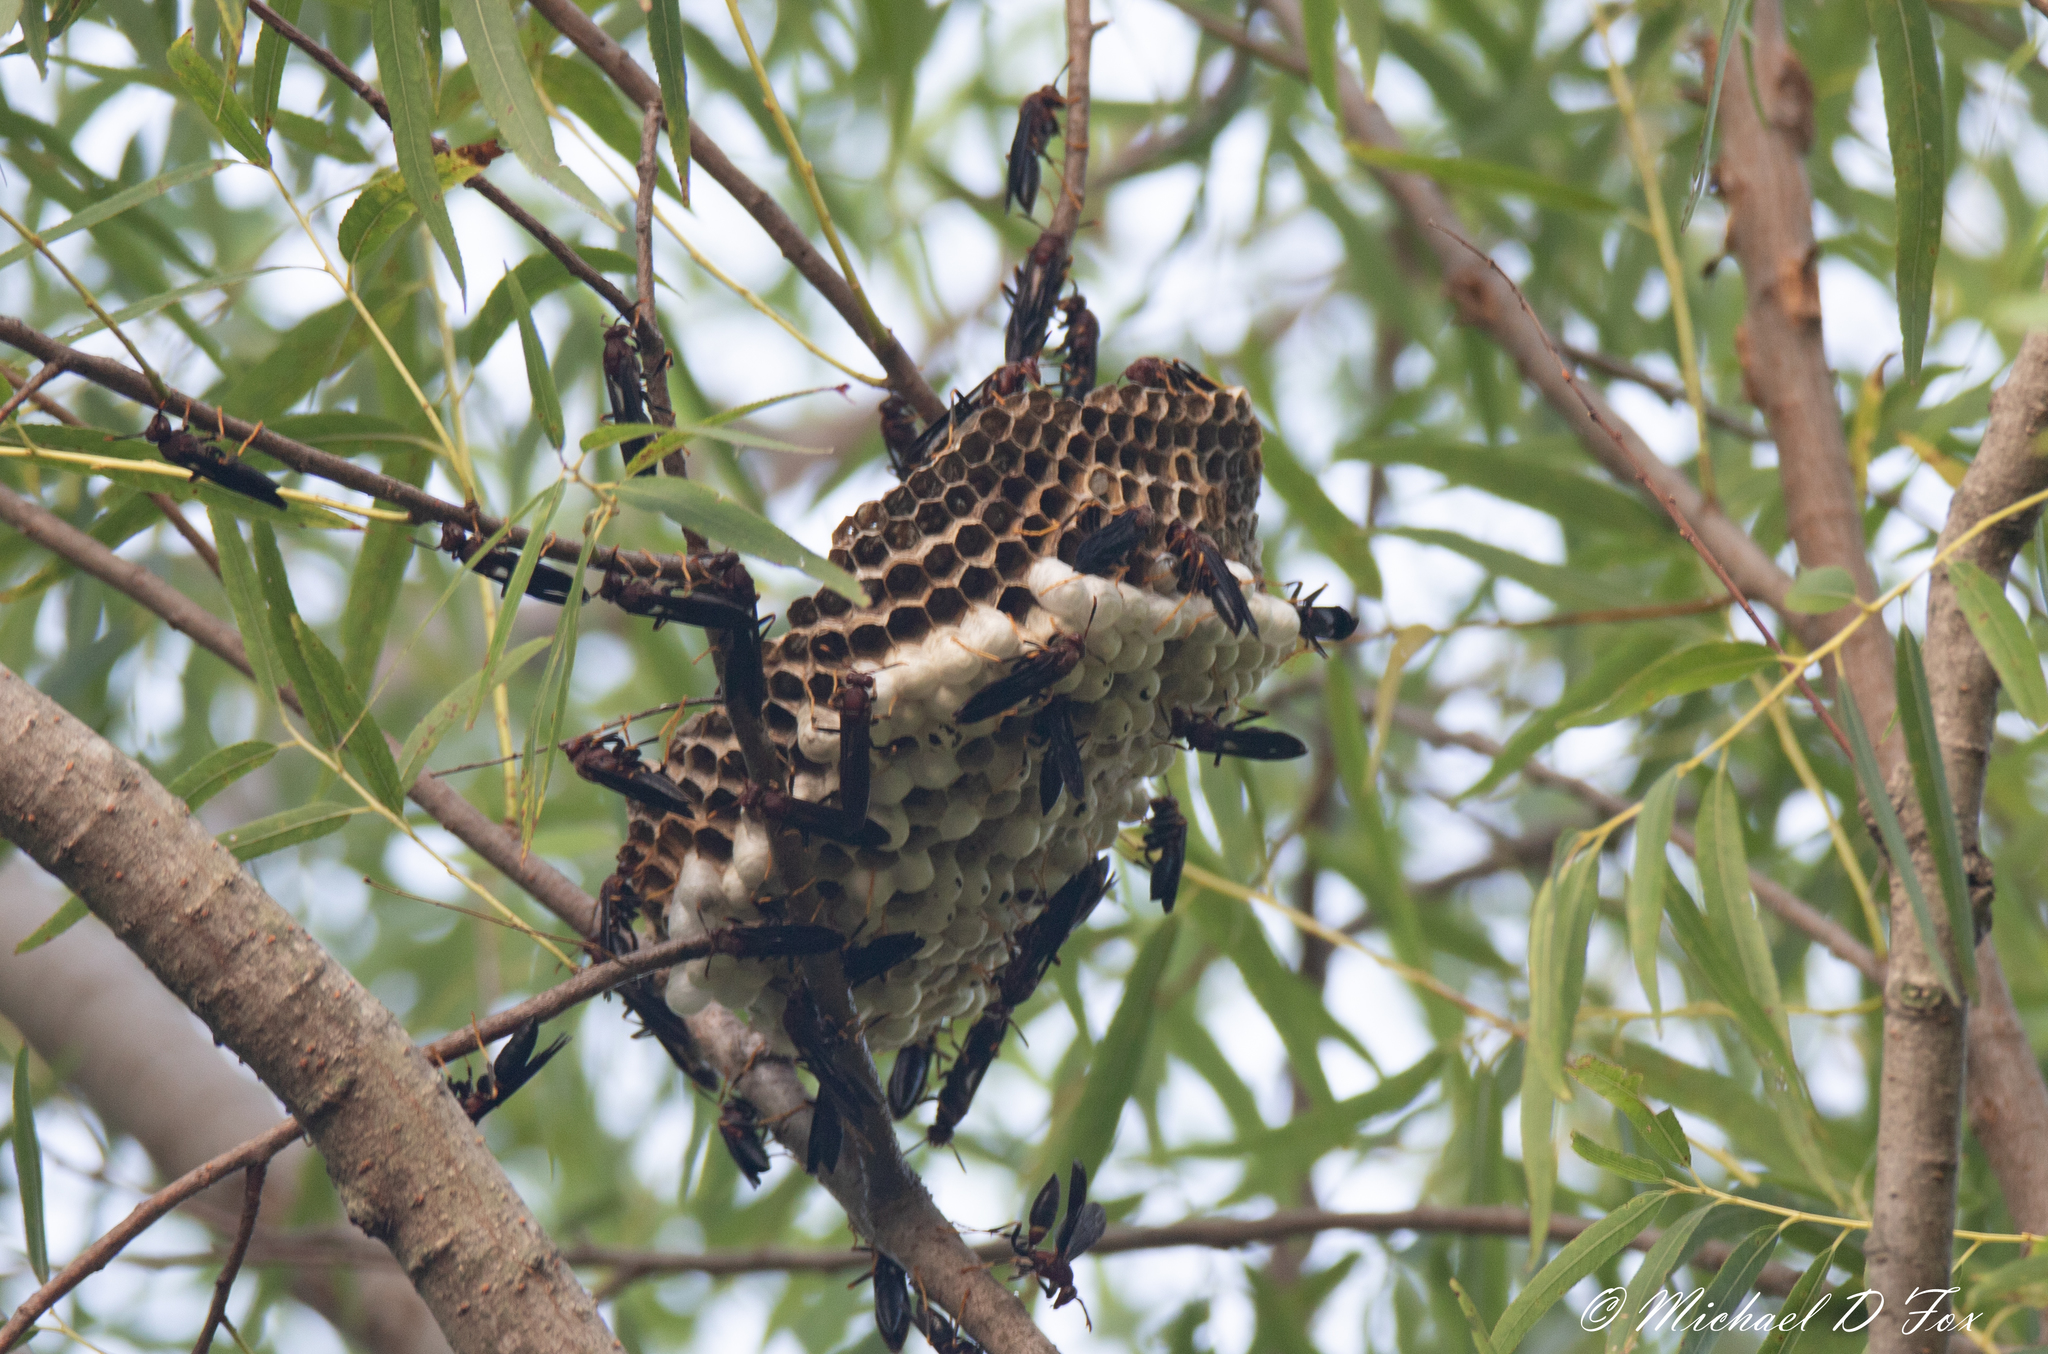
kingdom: Animalia
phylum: Arthropoda
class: Insecta
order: Hymenoptera
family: Eumenidae
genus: Polistes
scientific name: Polistes annularis
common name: Ringed paper wasp
